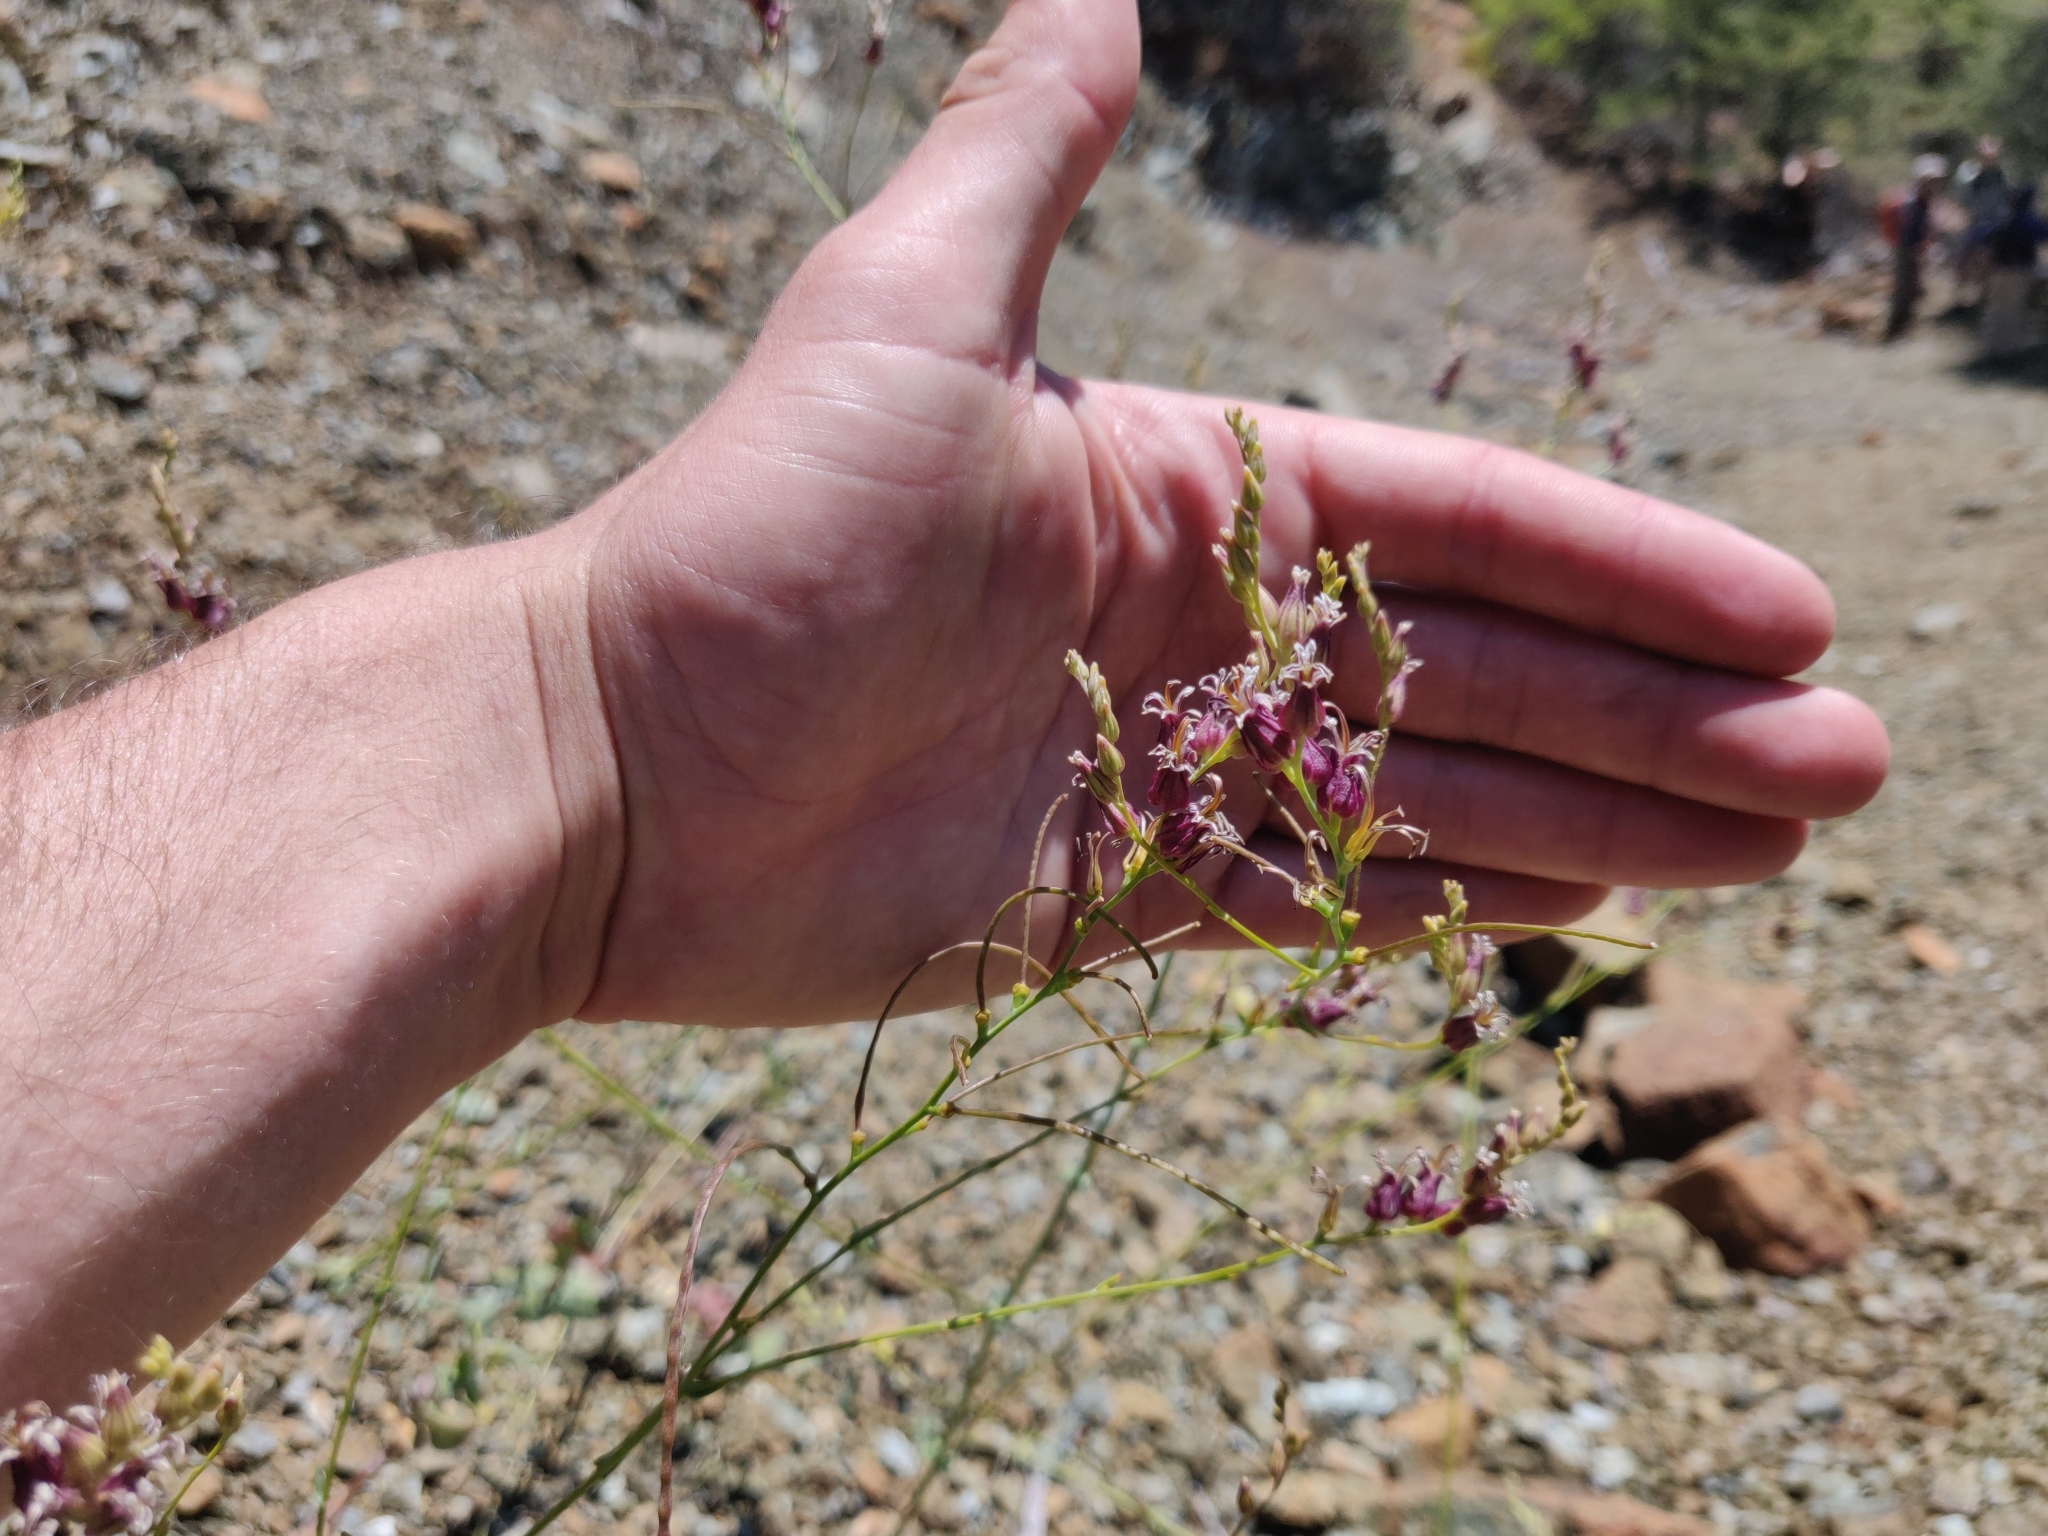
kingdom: Plantae
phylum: Tracheophyta
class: Magnoliopsida
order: Brassicales
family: Brassicaceae
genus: Streptanthus
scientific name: Streptanthus morrisonii
